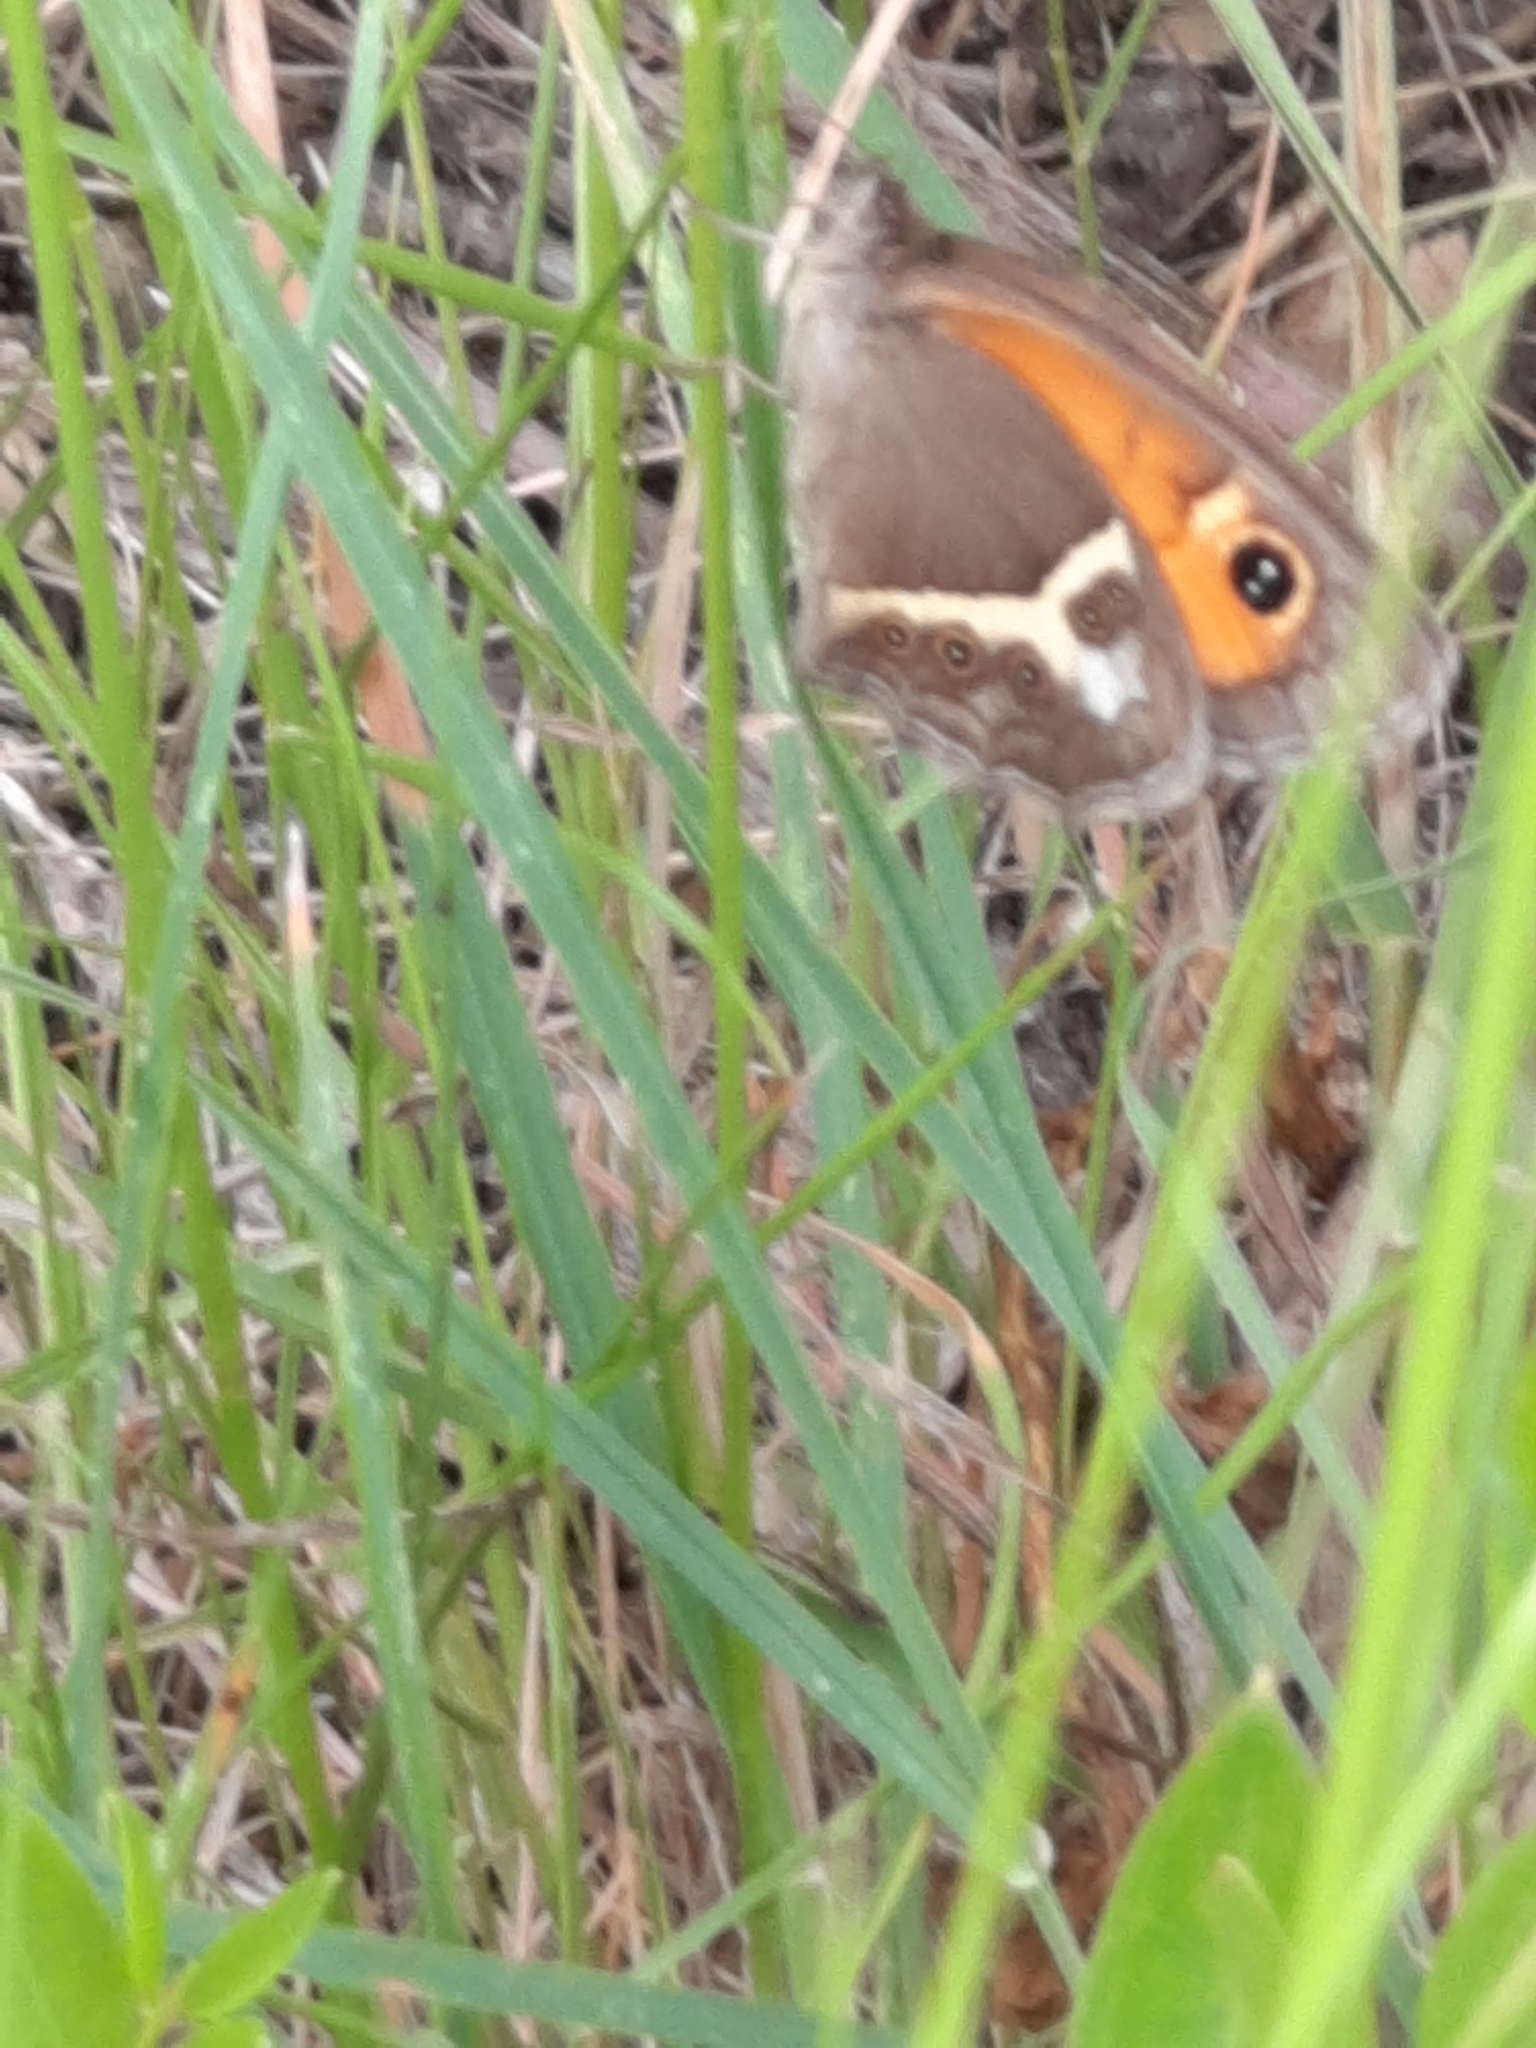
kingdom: Animalia
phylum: Arthropoda
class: Insecta
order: Lepidoptera
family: Nymphalidae
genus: Pyronia
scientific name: Pyronia bathseba
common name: Spanish gatekeeper
